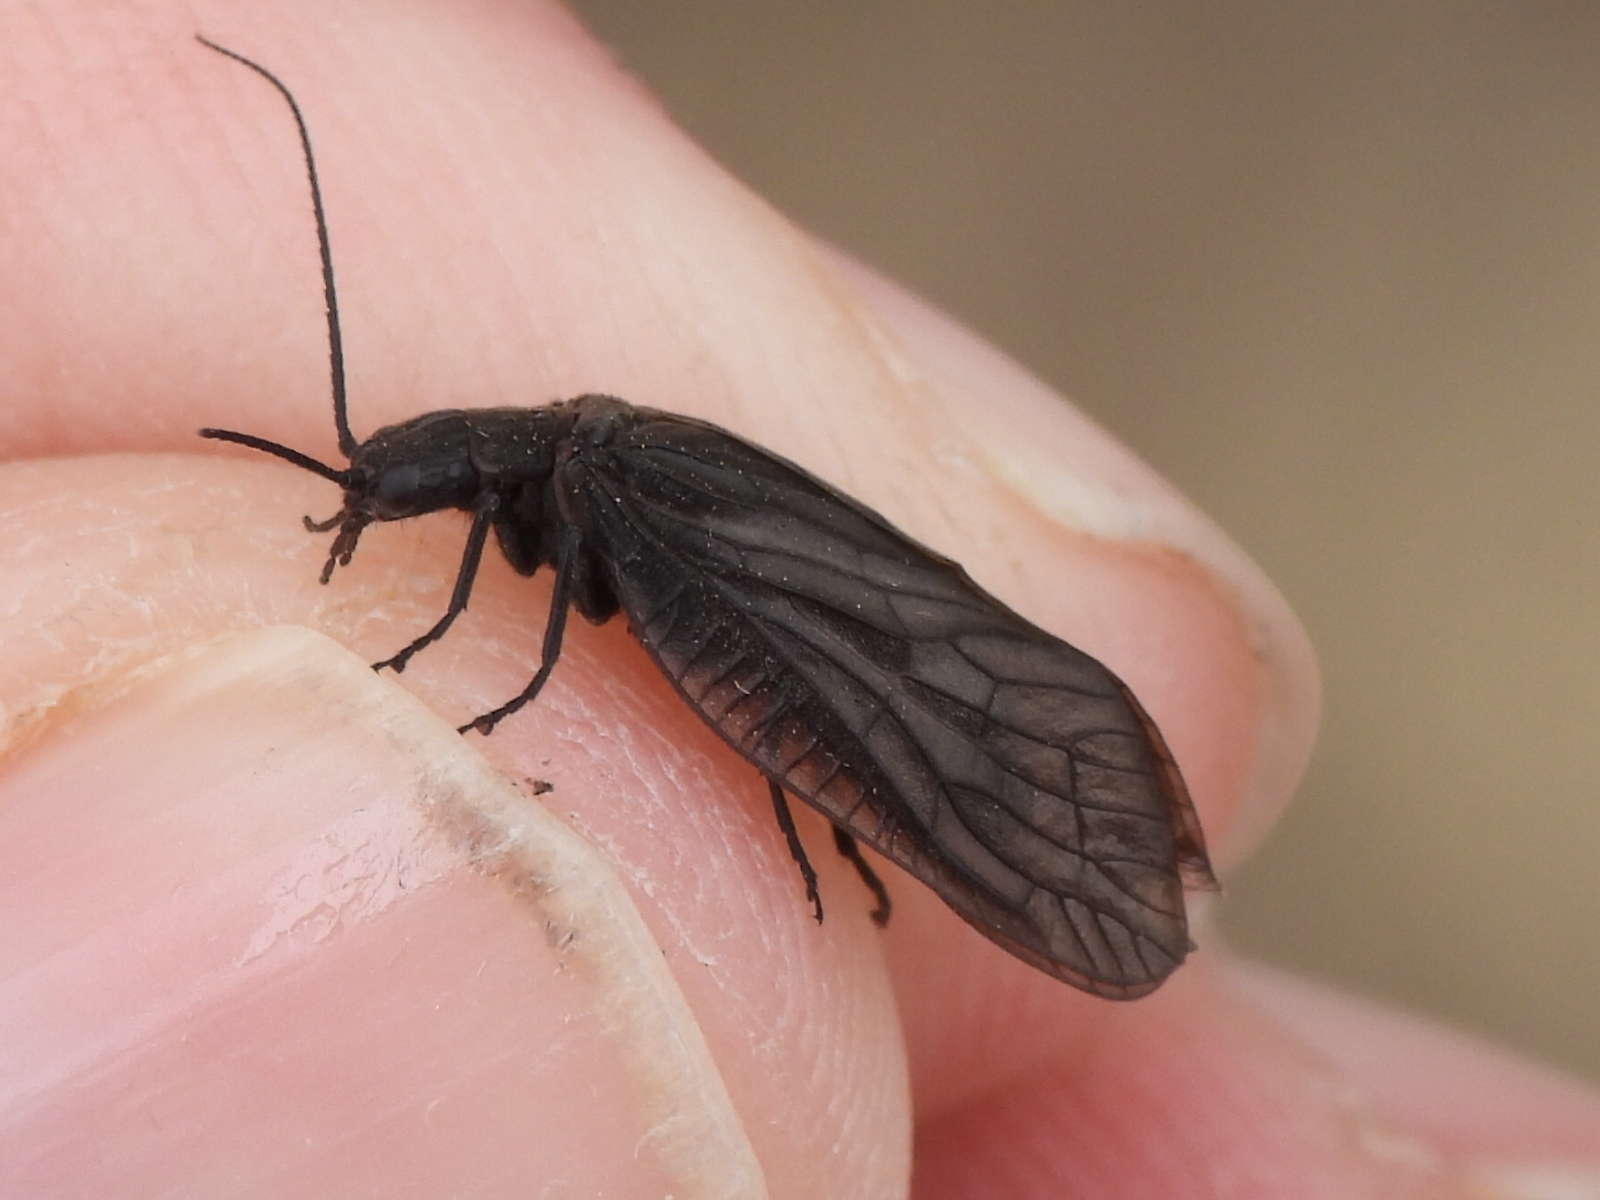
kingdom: Animalia
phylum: Arthropoda
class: Insecta
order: Megaloptera
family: Sialidae
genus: Sialis
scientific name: Sialis
